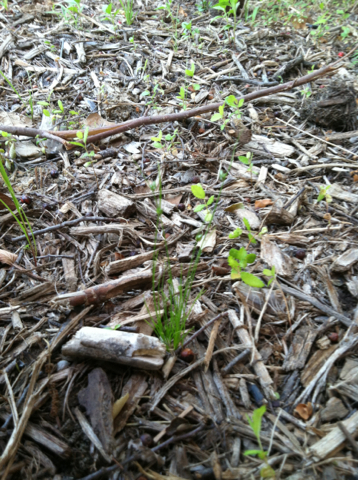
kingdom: Plantae
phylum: Tracheophyta
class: Liliopsida
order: Poales
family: Cyperaceae
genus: Isolepis
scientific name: Isolepis carinata
